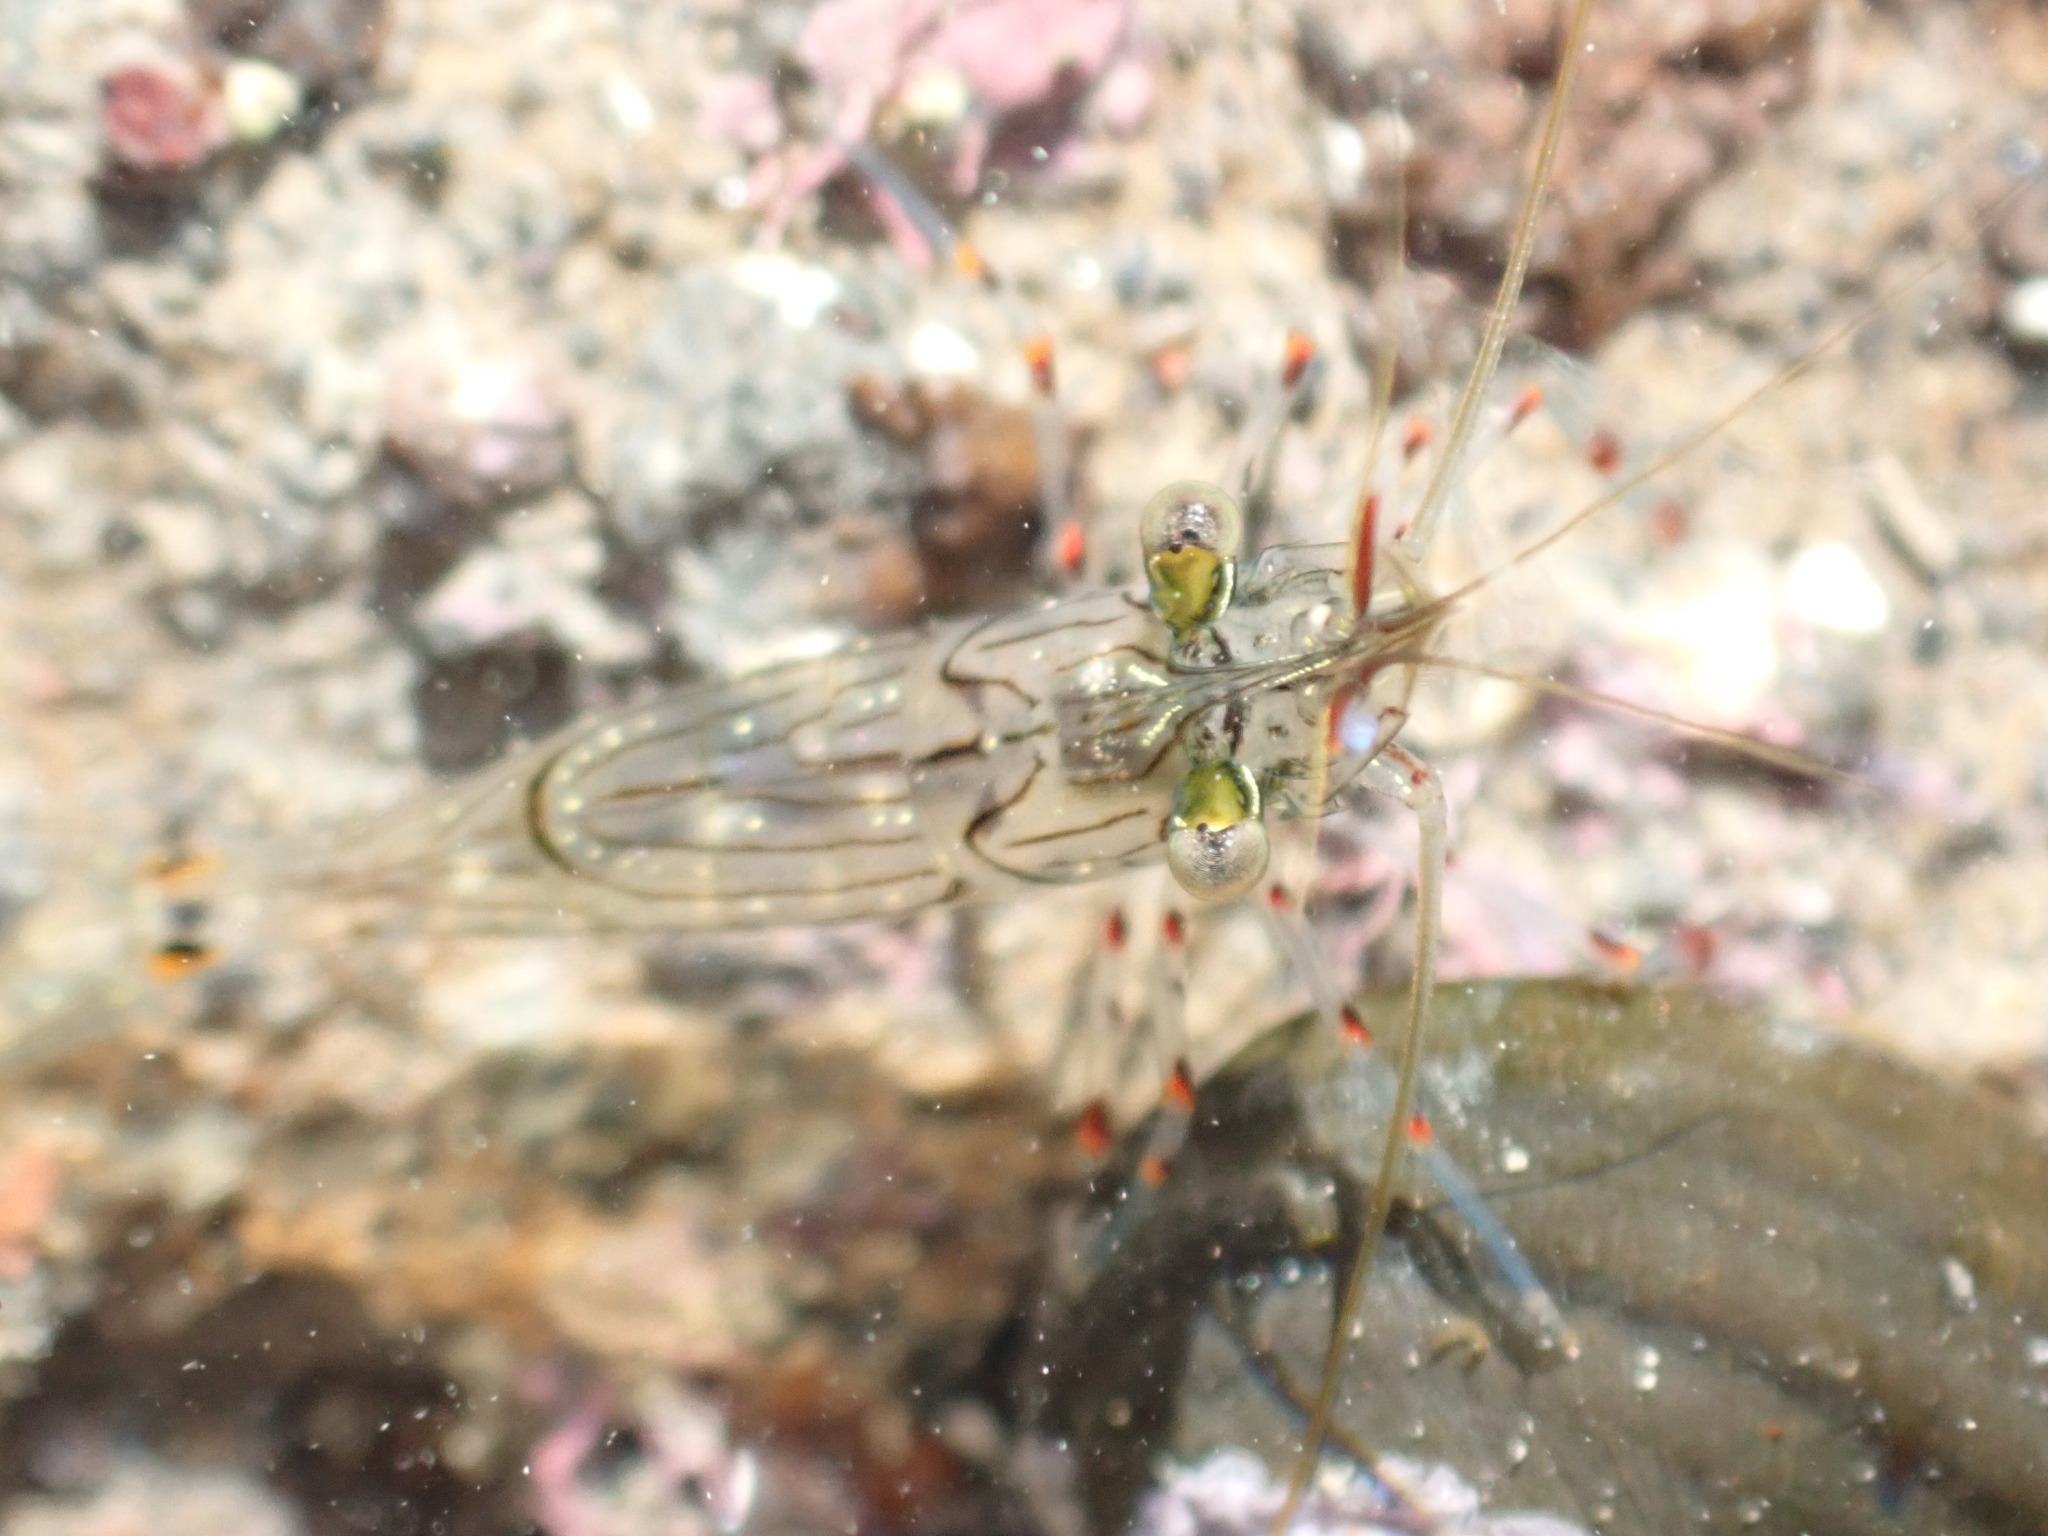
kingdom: Animalia
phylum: Arthropoda
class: Malacostraca
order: Decapoda
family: Palaemonidae
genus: Palaemon
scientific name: Palaemon affinis
